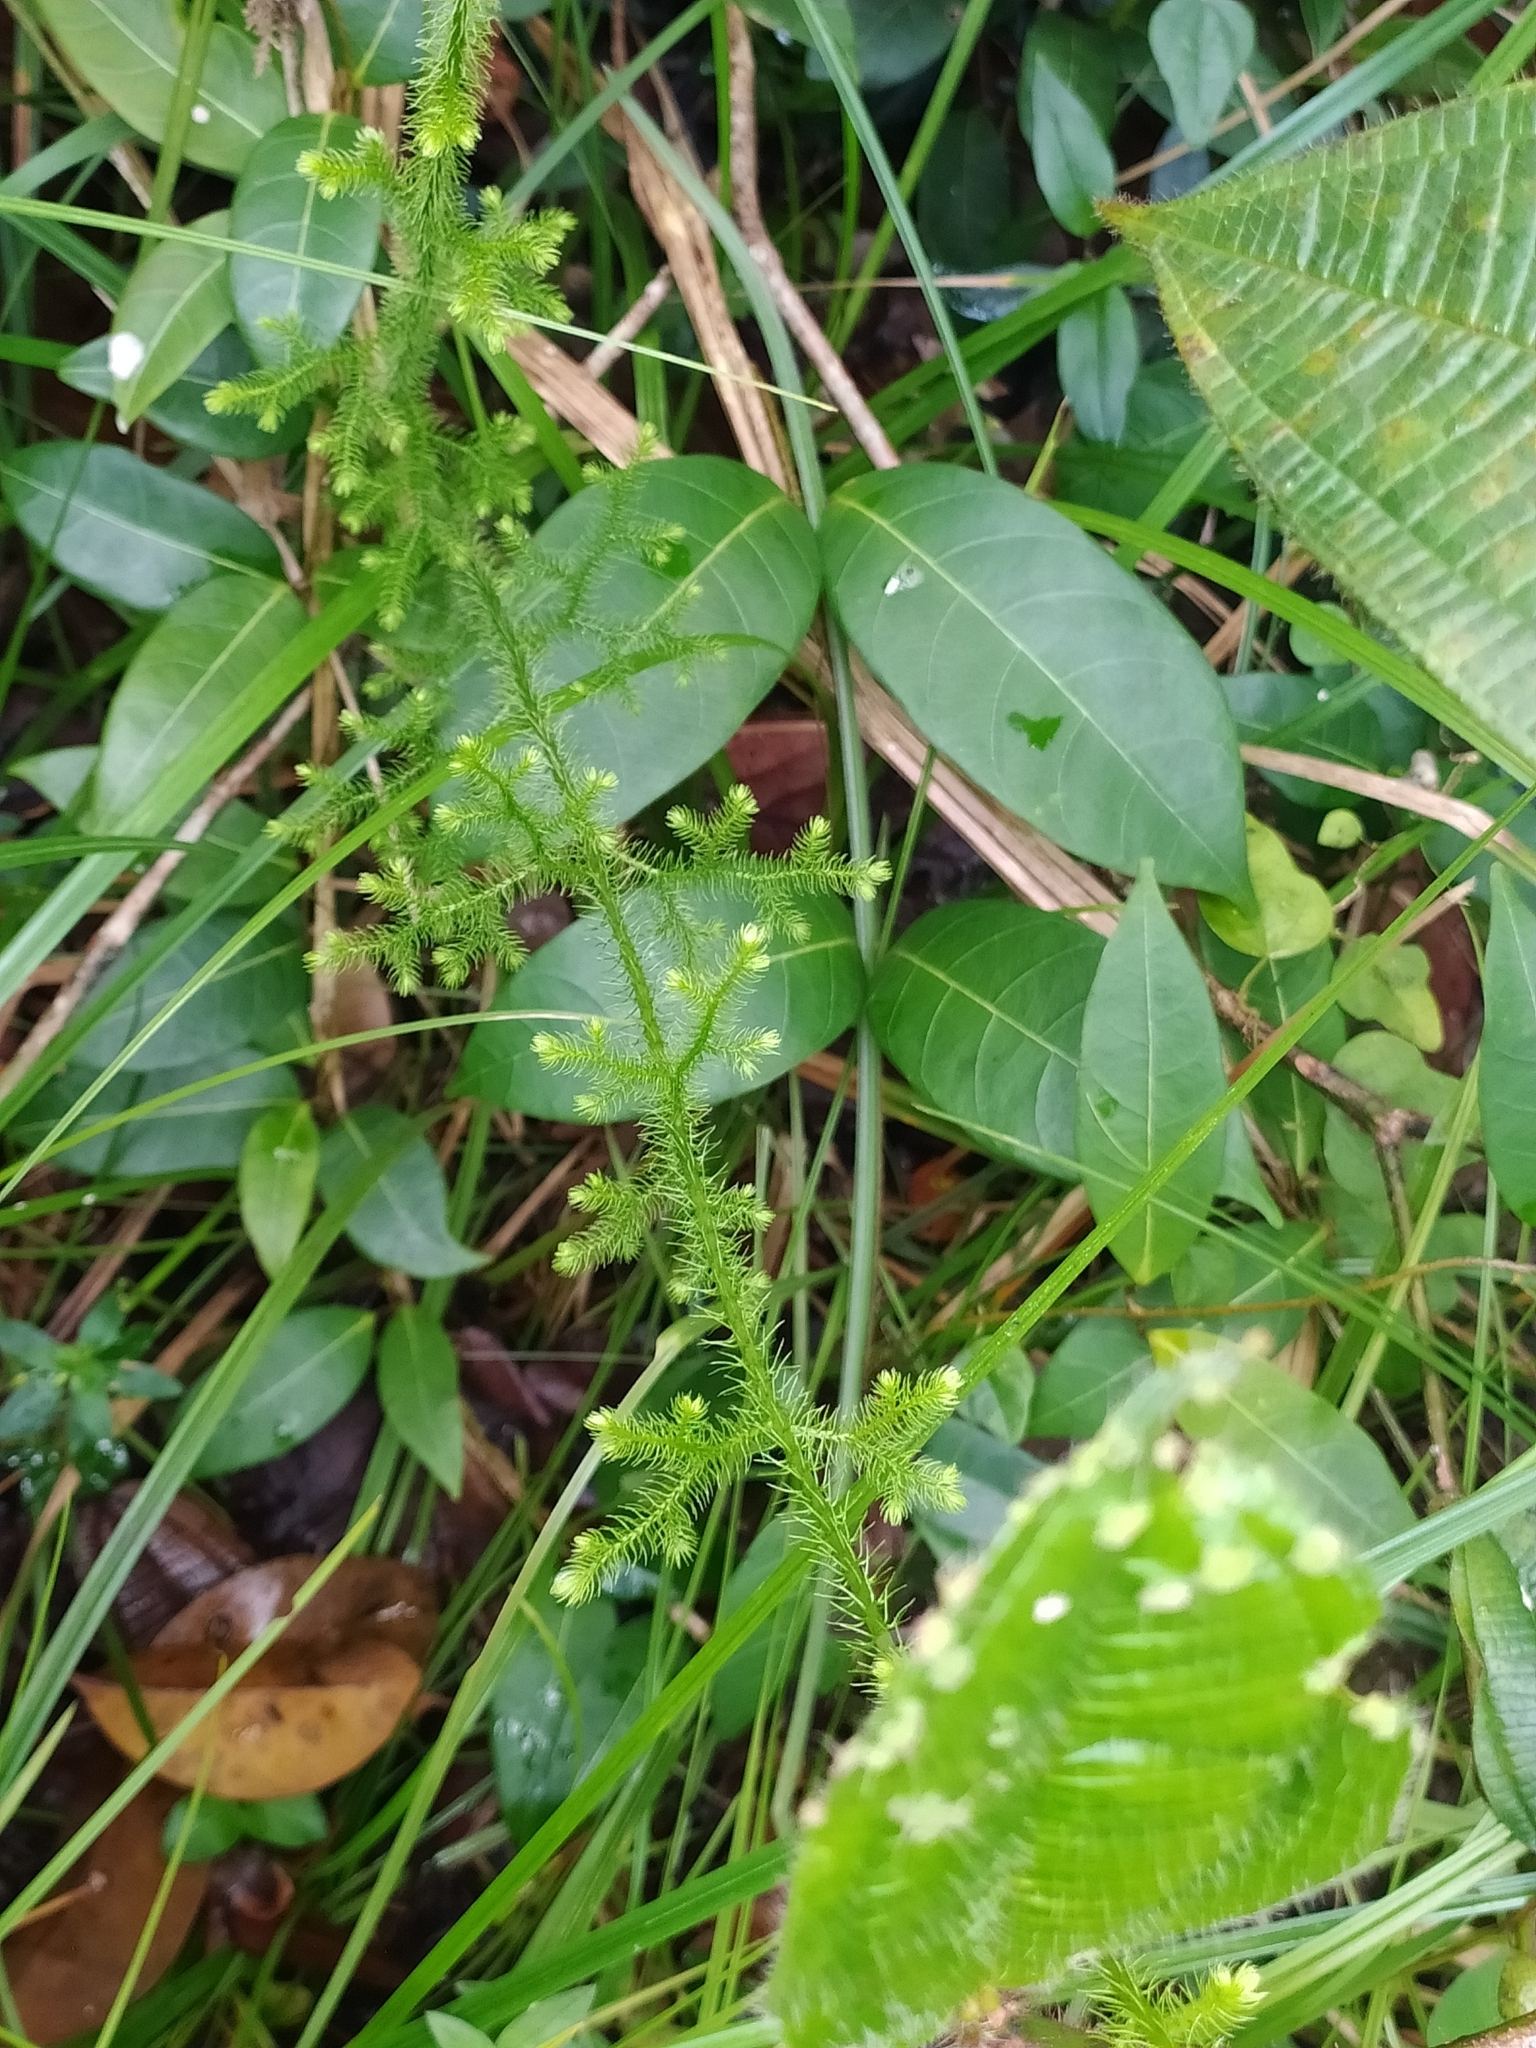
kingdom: Plantae
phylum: Tracheophyta
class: Lycopodiopsida
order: Lycopodiales
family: Lycopodiaceae
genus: Palhinhaea
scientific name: Palhinhaea cernua
